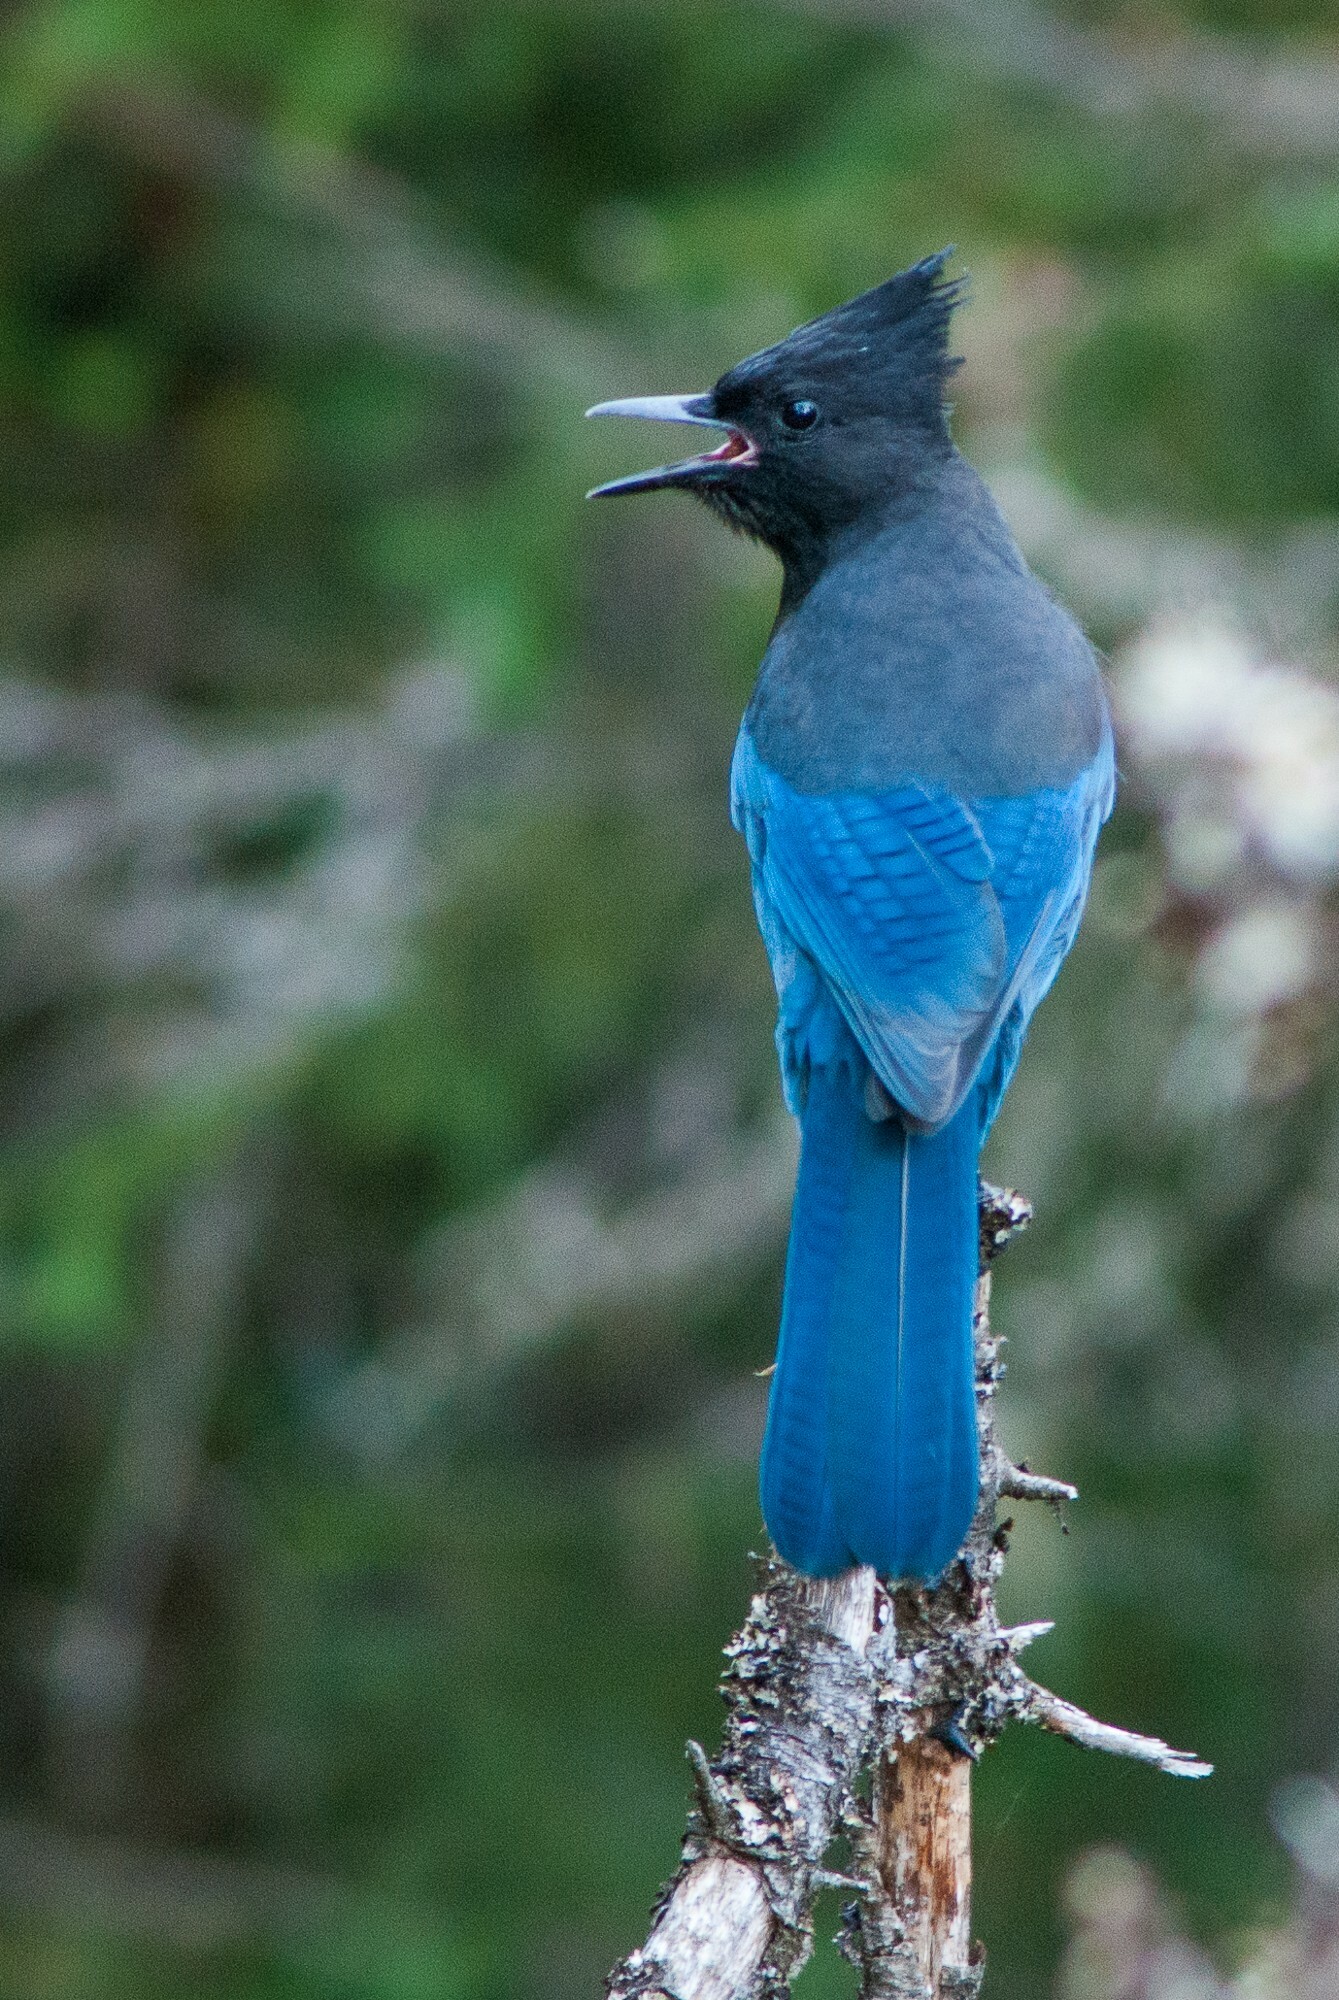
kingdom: Animalia
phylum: Chordata
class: Aves
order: Passeriformes
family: Corvidae
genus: Cyanocitta
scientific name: Cyanocitta stelleri
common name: Steller's jay
